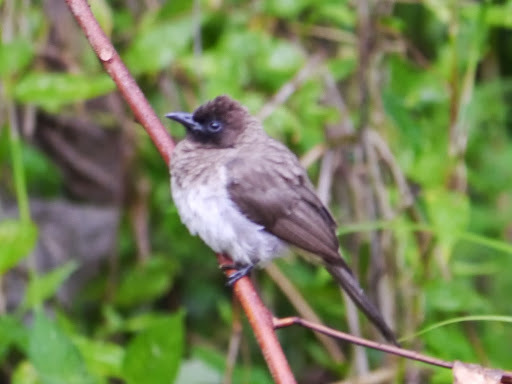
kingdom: Animalia
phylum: Chordata
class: Aves
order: Passeriformes
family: Pycnonotidae
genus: Pycnonotus
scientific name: Pycnonotus barbatus
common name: Common bulbul
